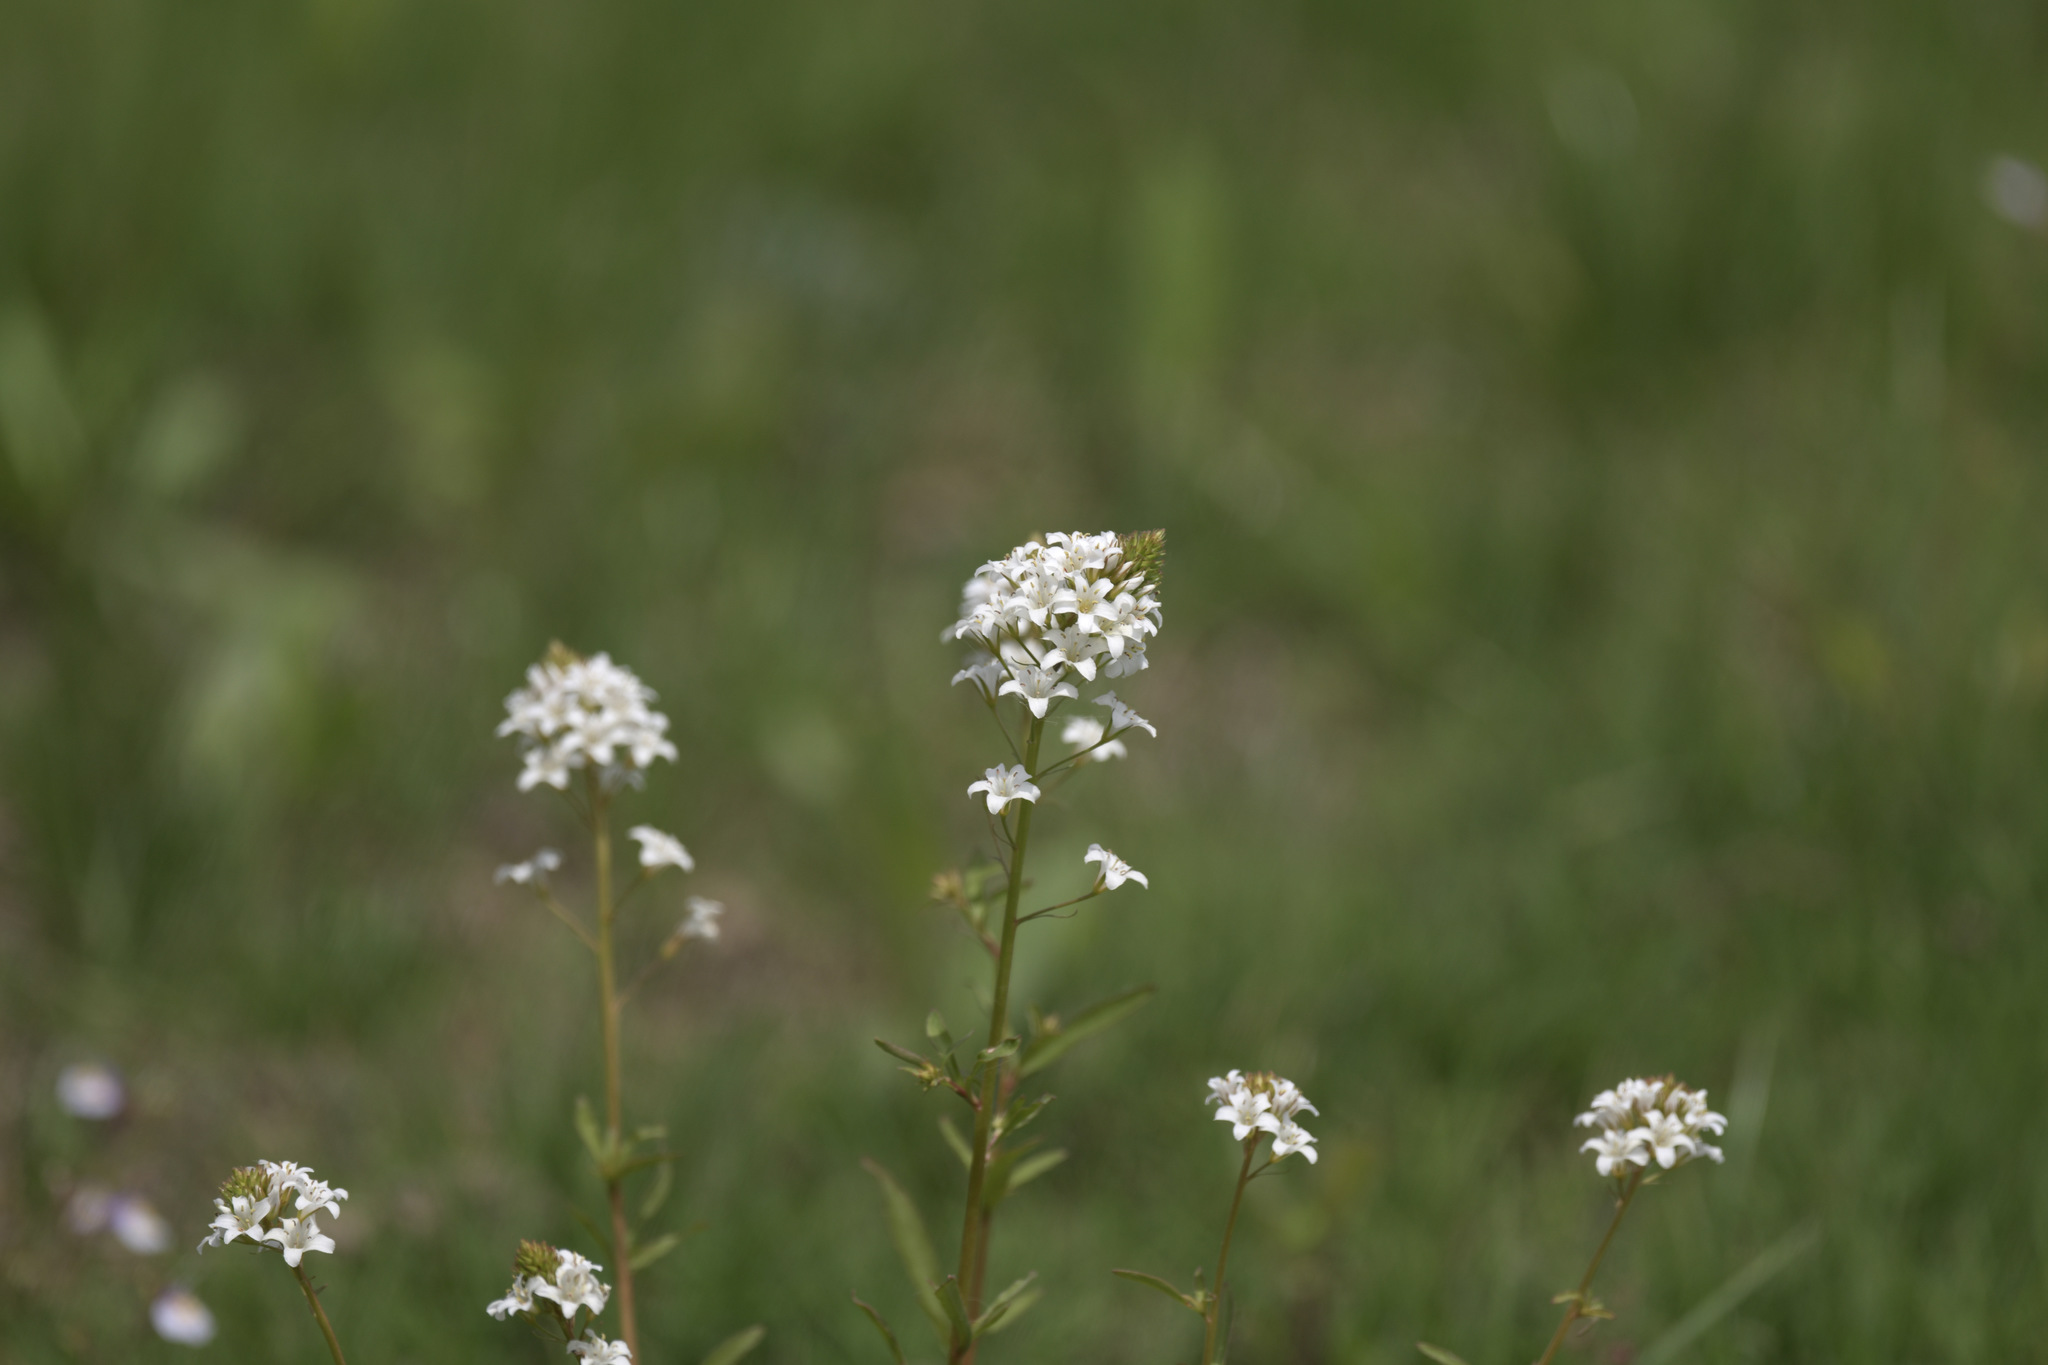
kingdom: Plantae
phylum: Tracheophyta
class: Magnoliopsida
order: Ericales
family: Primulaceae
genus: Lysimachia
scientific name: Lysimachia candida
